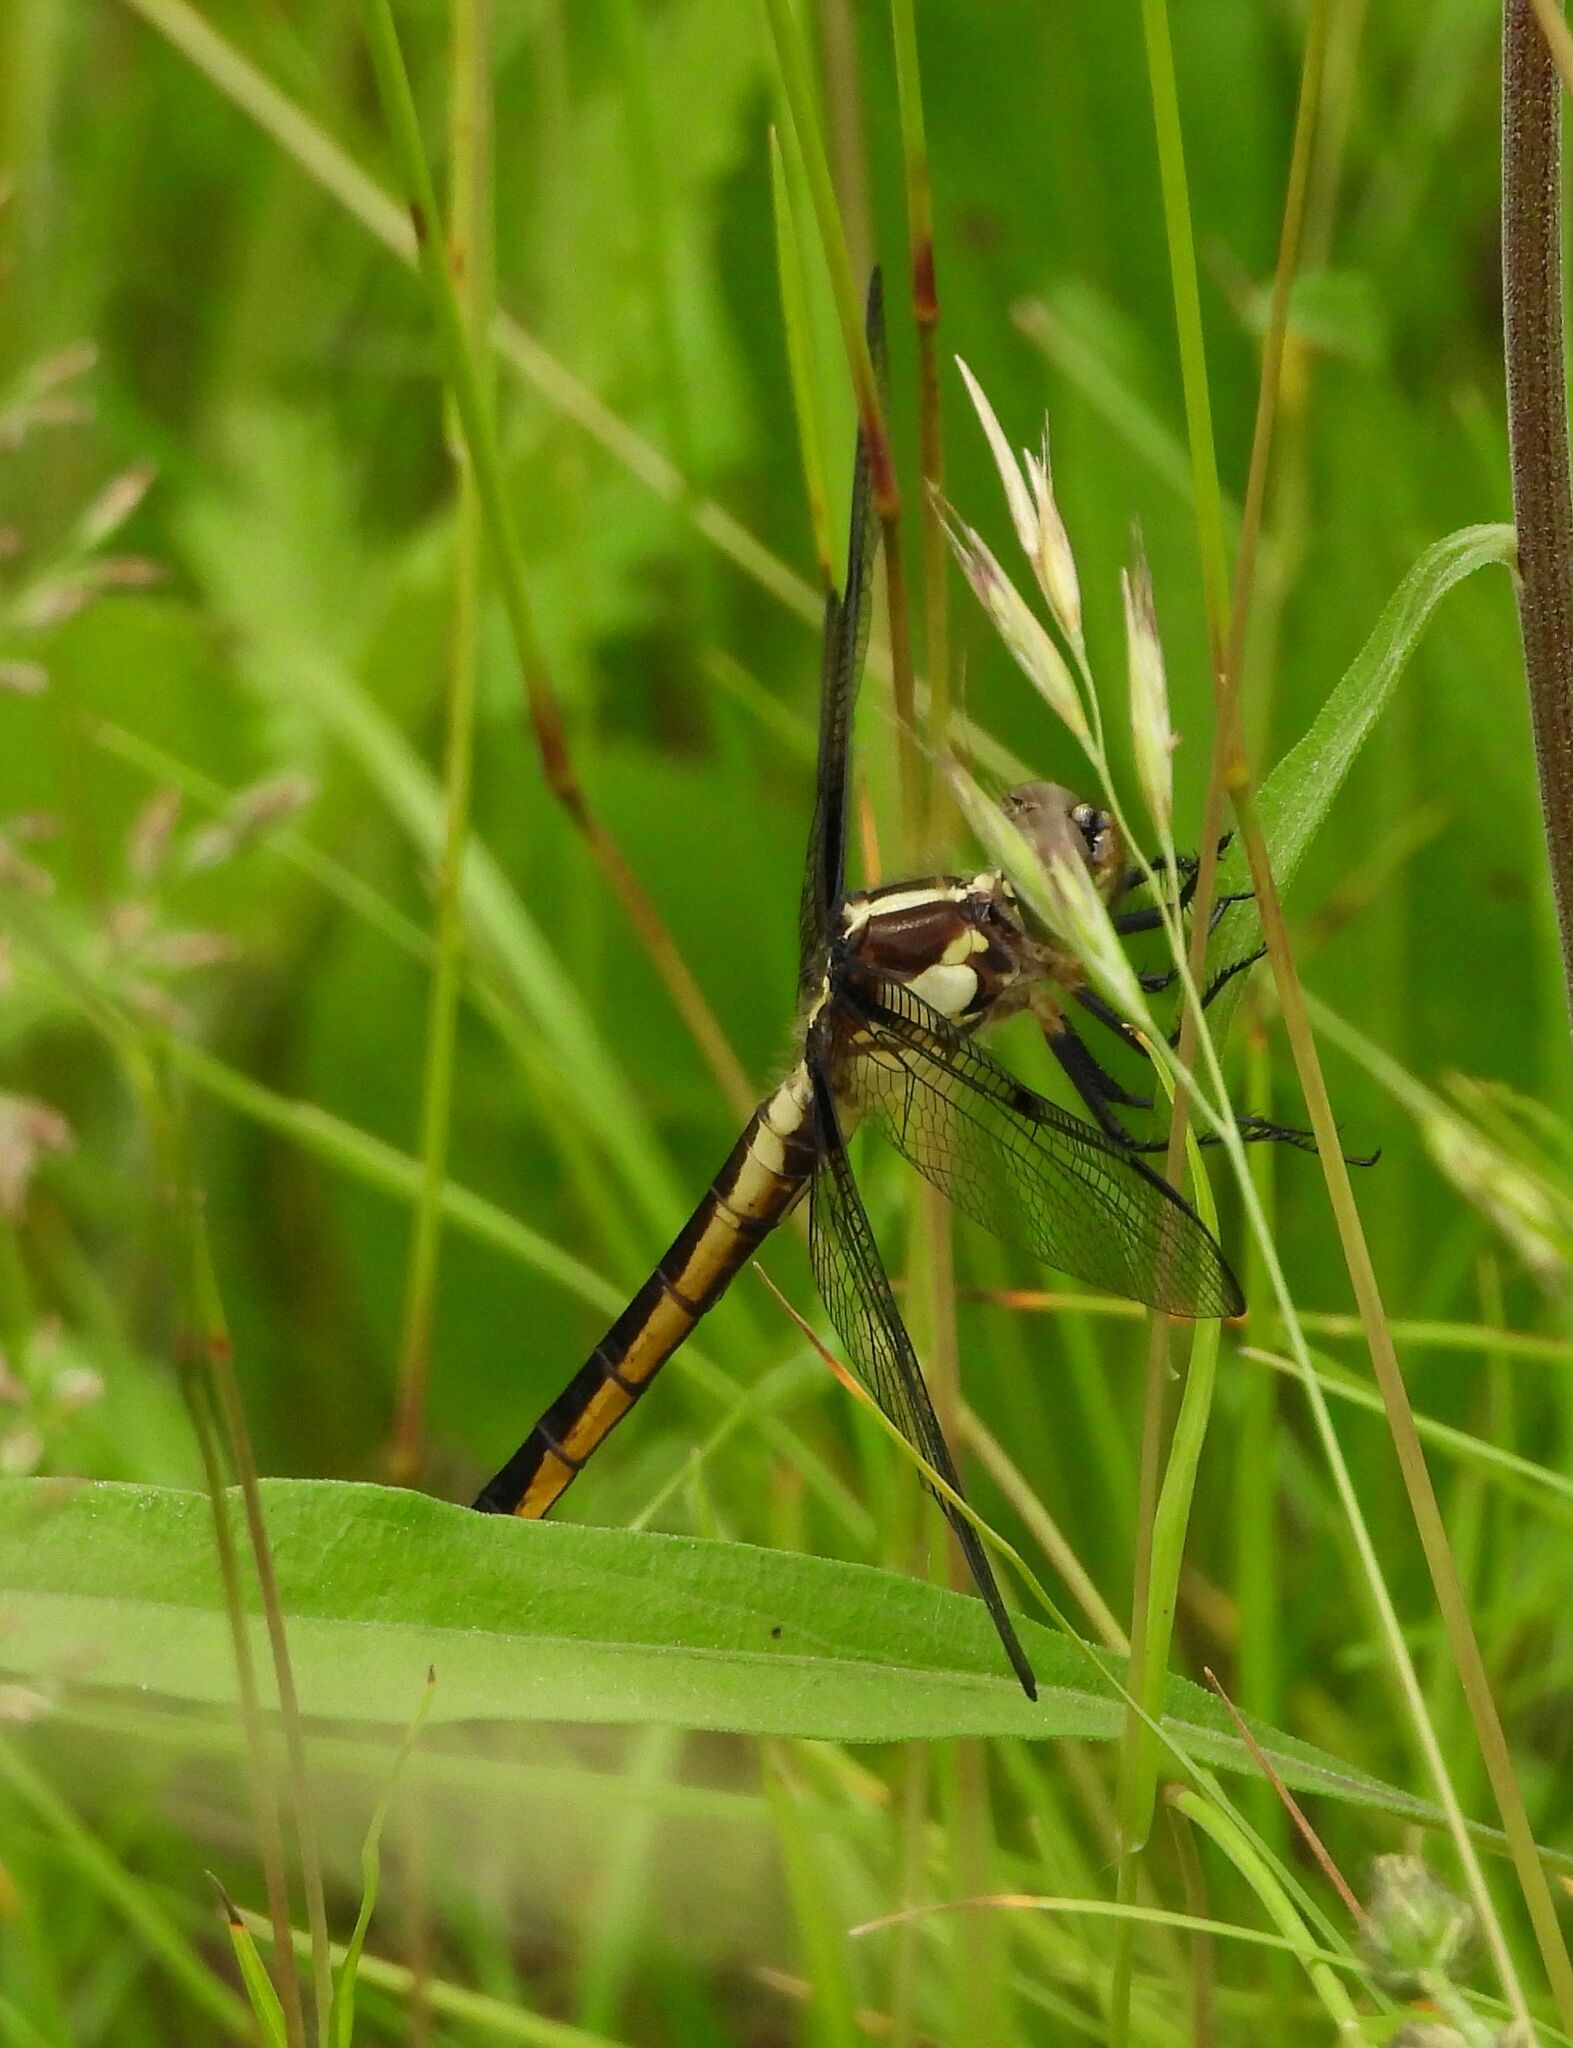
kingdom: Animalia
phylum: Arthropoda
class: Insecta
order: Odonata
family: Libellulidae
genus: Libellula
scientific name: Libellula incesta
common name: Slaty skimmer
